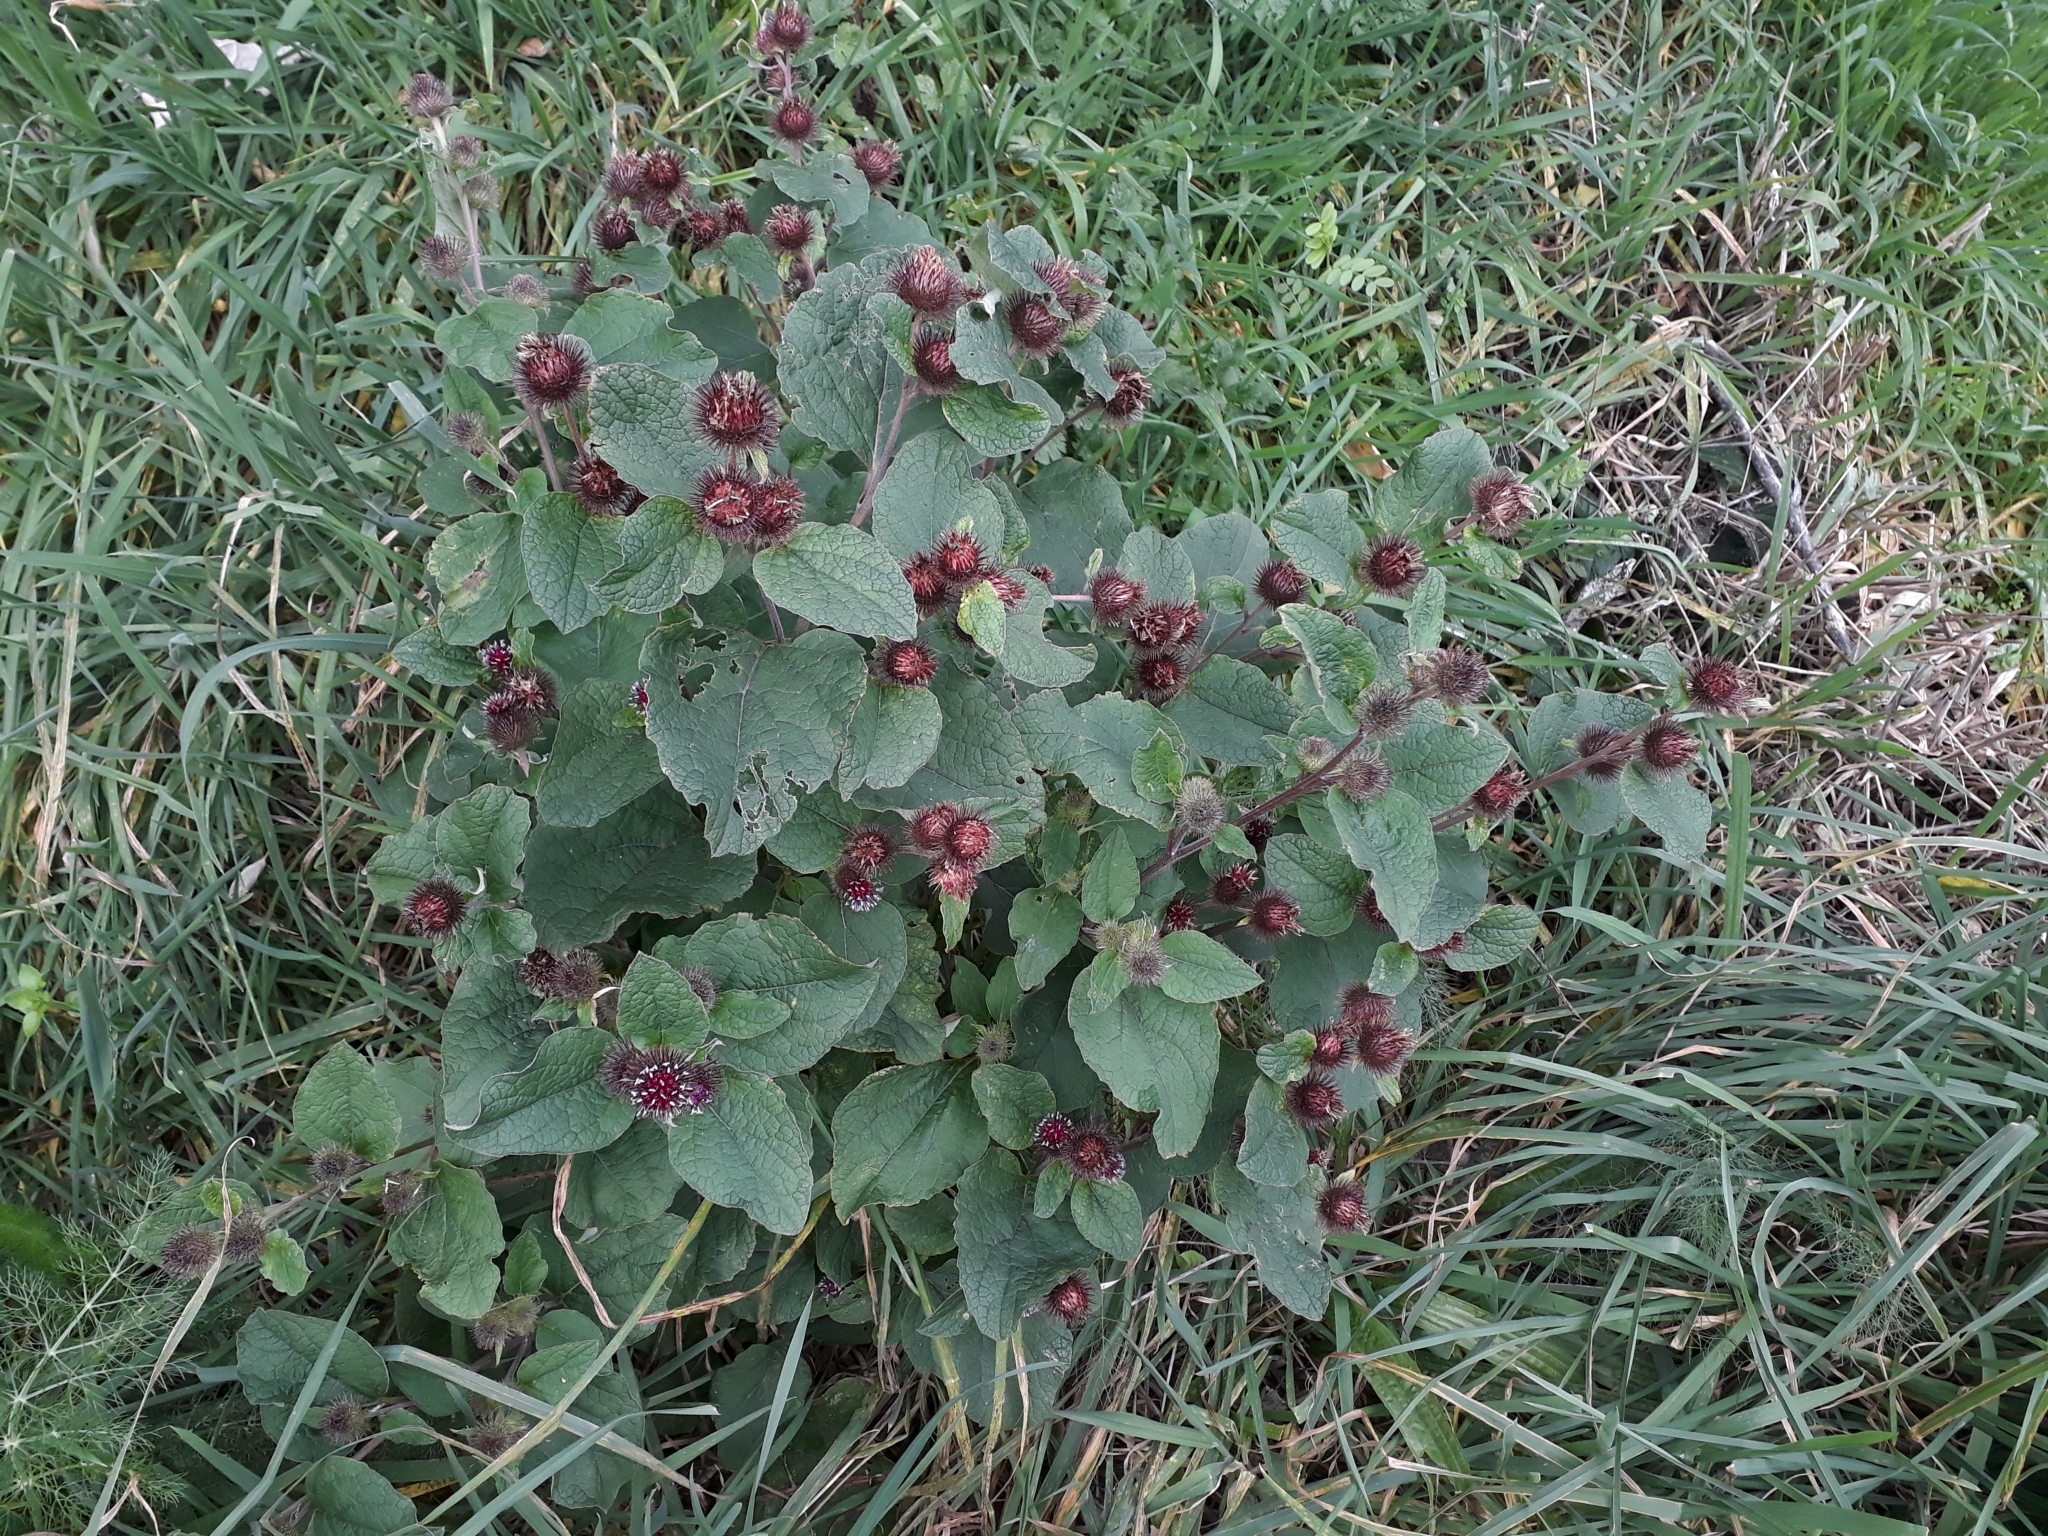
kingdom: Plantae
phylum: Tracheophyta
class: Magnoliopsida
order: Asterales
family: Asteraceae
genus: Arctium
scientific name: Arctium minus
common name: Lesser burdock
